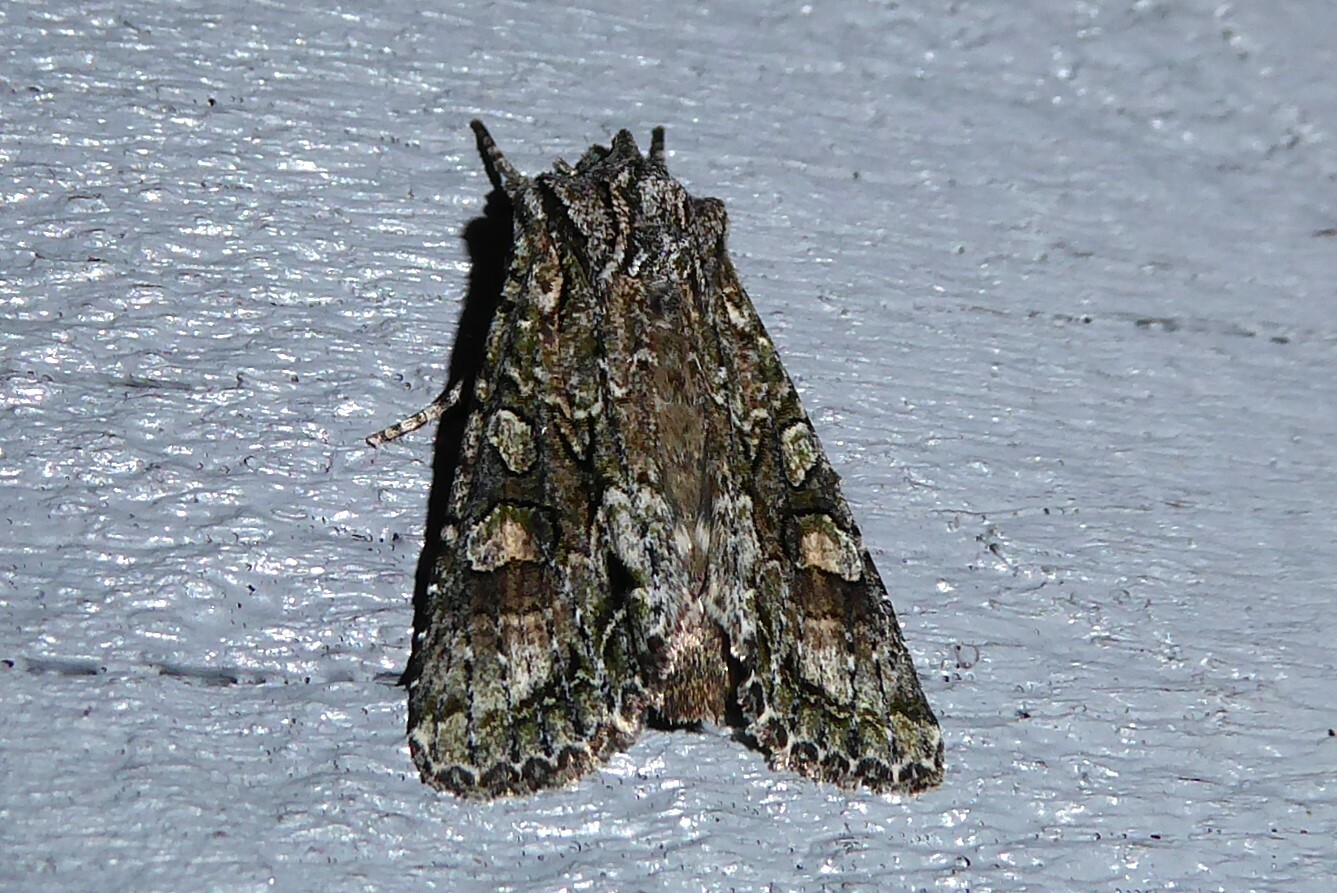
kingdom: Animalia
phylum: Arthropoda
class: Insecta
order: Lepidoptera
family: Noctuidae
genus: Ichneutica
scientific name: Ichneutica mutans
